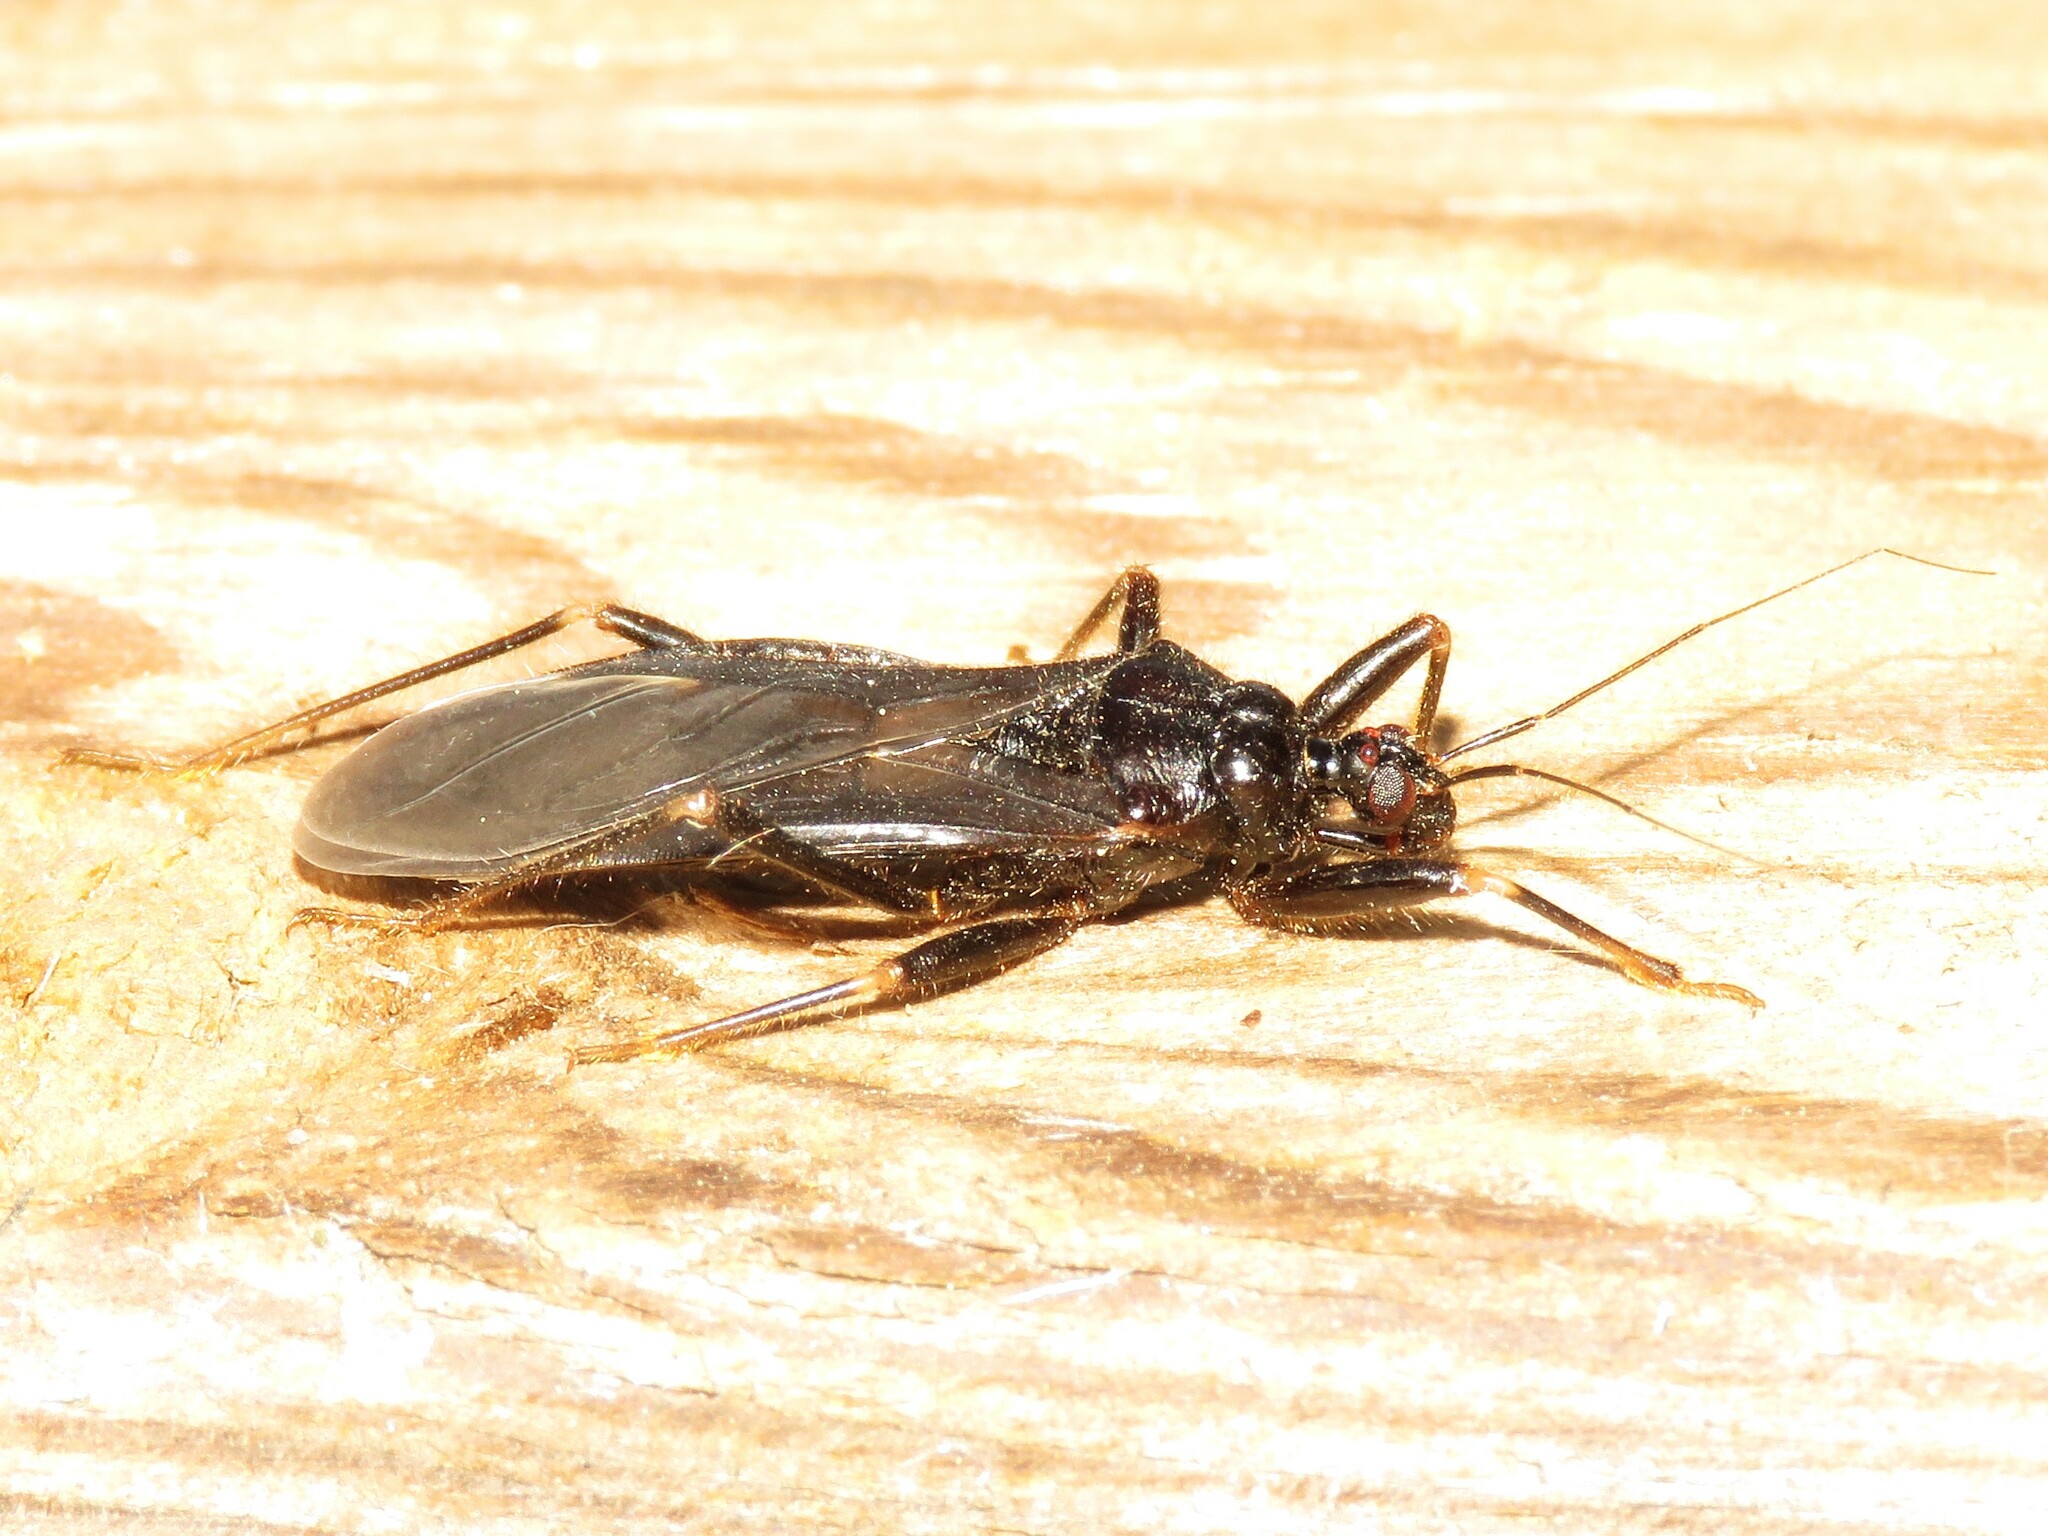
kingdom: Animalia
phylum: Arthropoda
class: Insecta
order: Hemiptera
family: Reduviidae
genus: Reduvius
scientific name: Reduvius personatus
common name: Masked hunter
